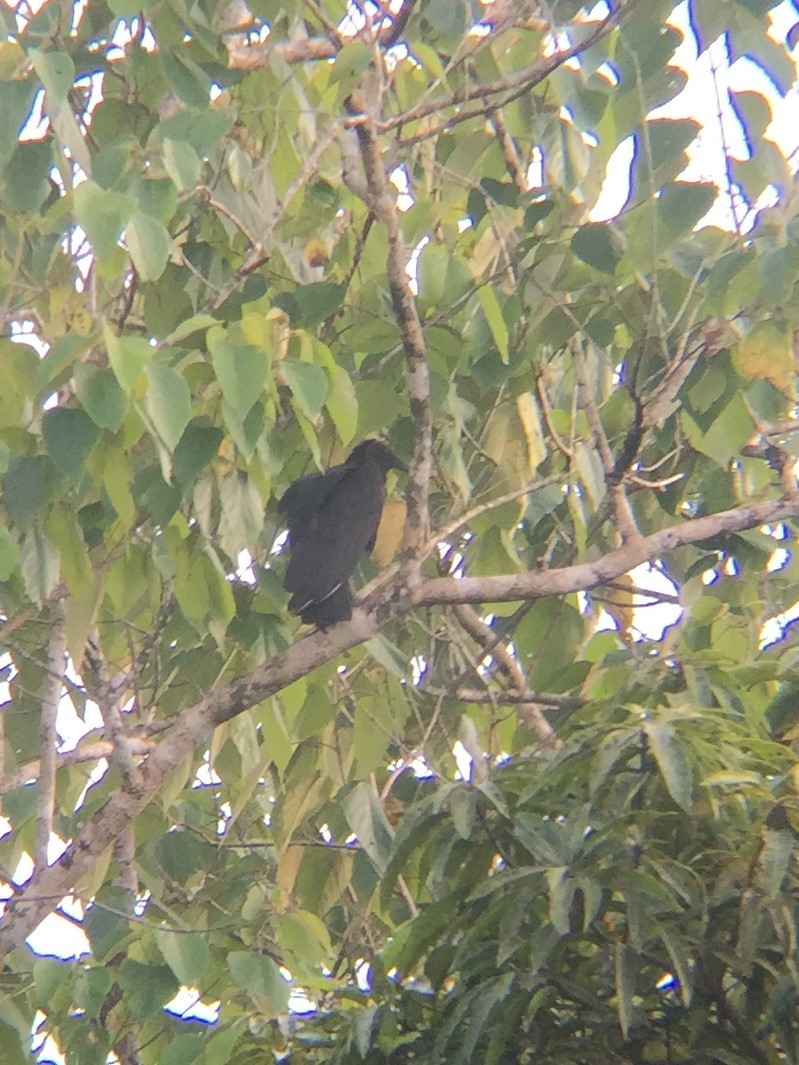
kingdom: Animalia
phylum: Chordata
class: Aves
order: Accipitriformes
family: Cathartidae
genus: Coragyps
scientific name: Coragyps atratus
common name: Black vulture
